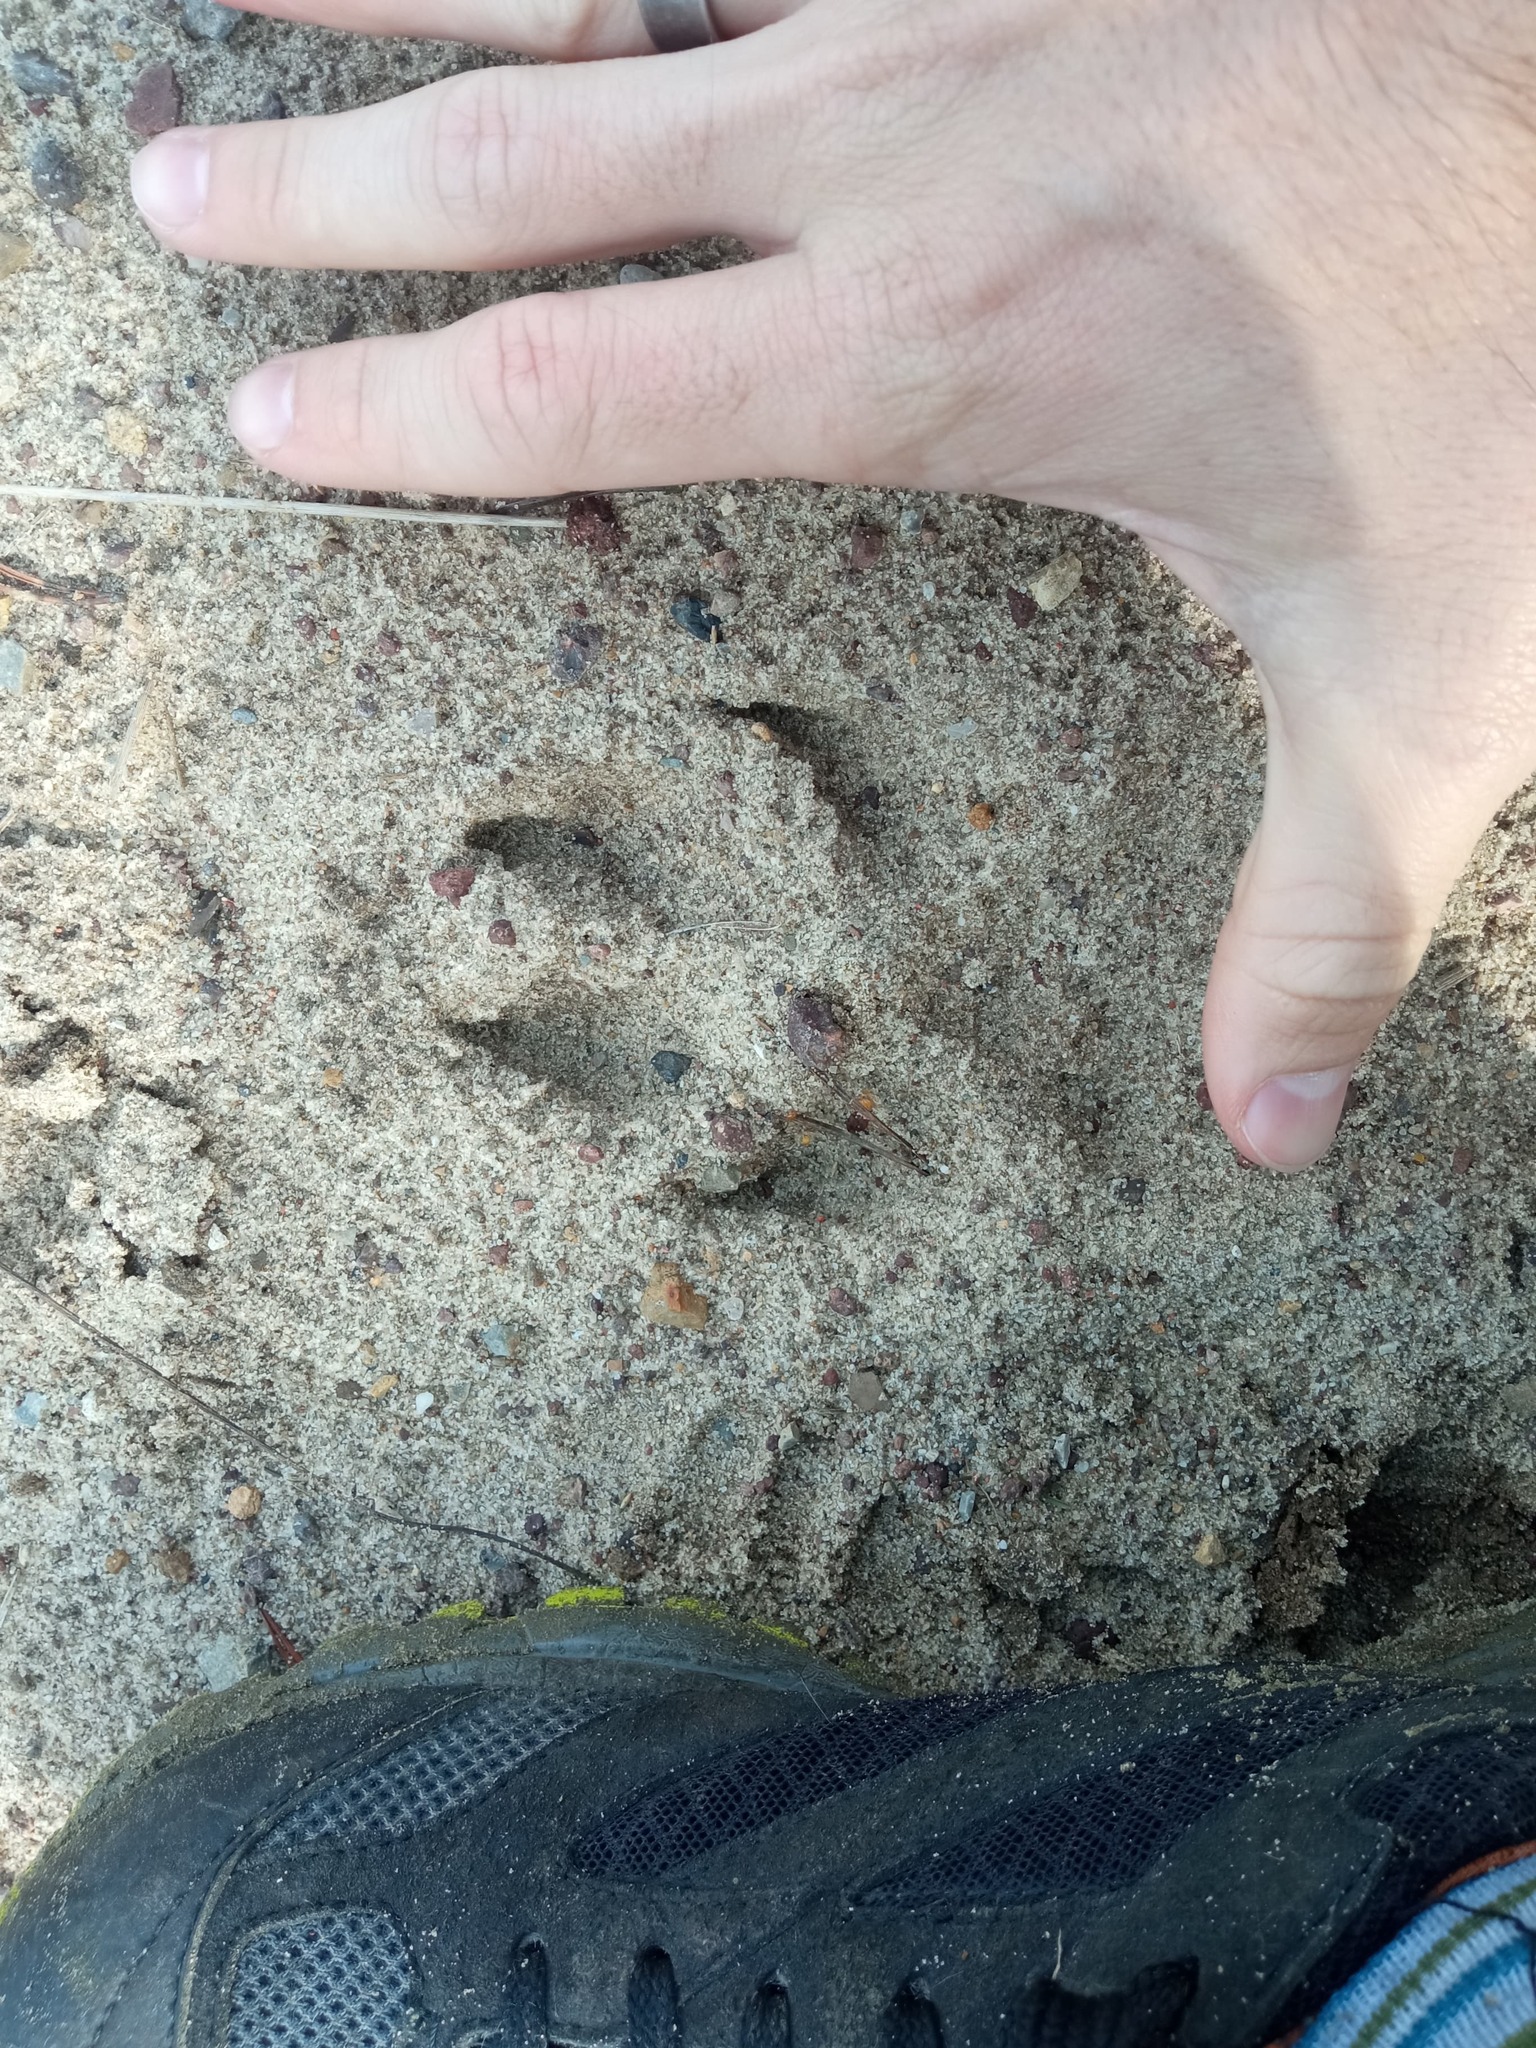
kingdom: Animalia
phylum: Chordata
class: Mammalia
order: Carnivora
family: Canidae
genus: Canis
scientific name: Canis lupus
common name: Gray wolf
